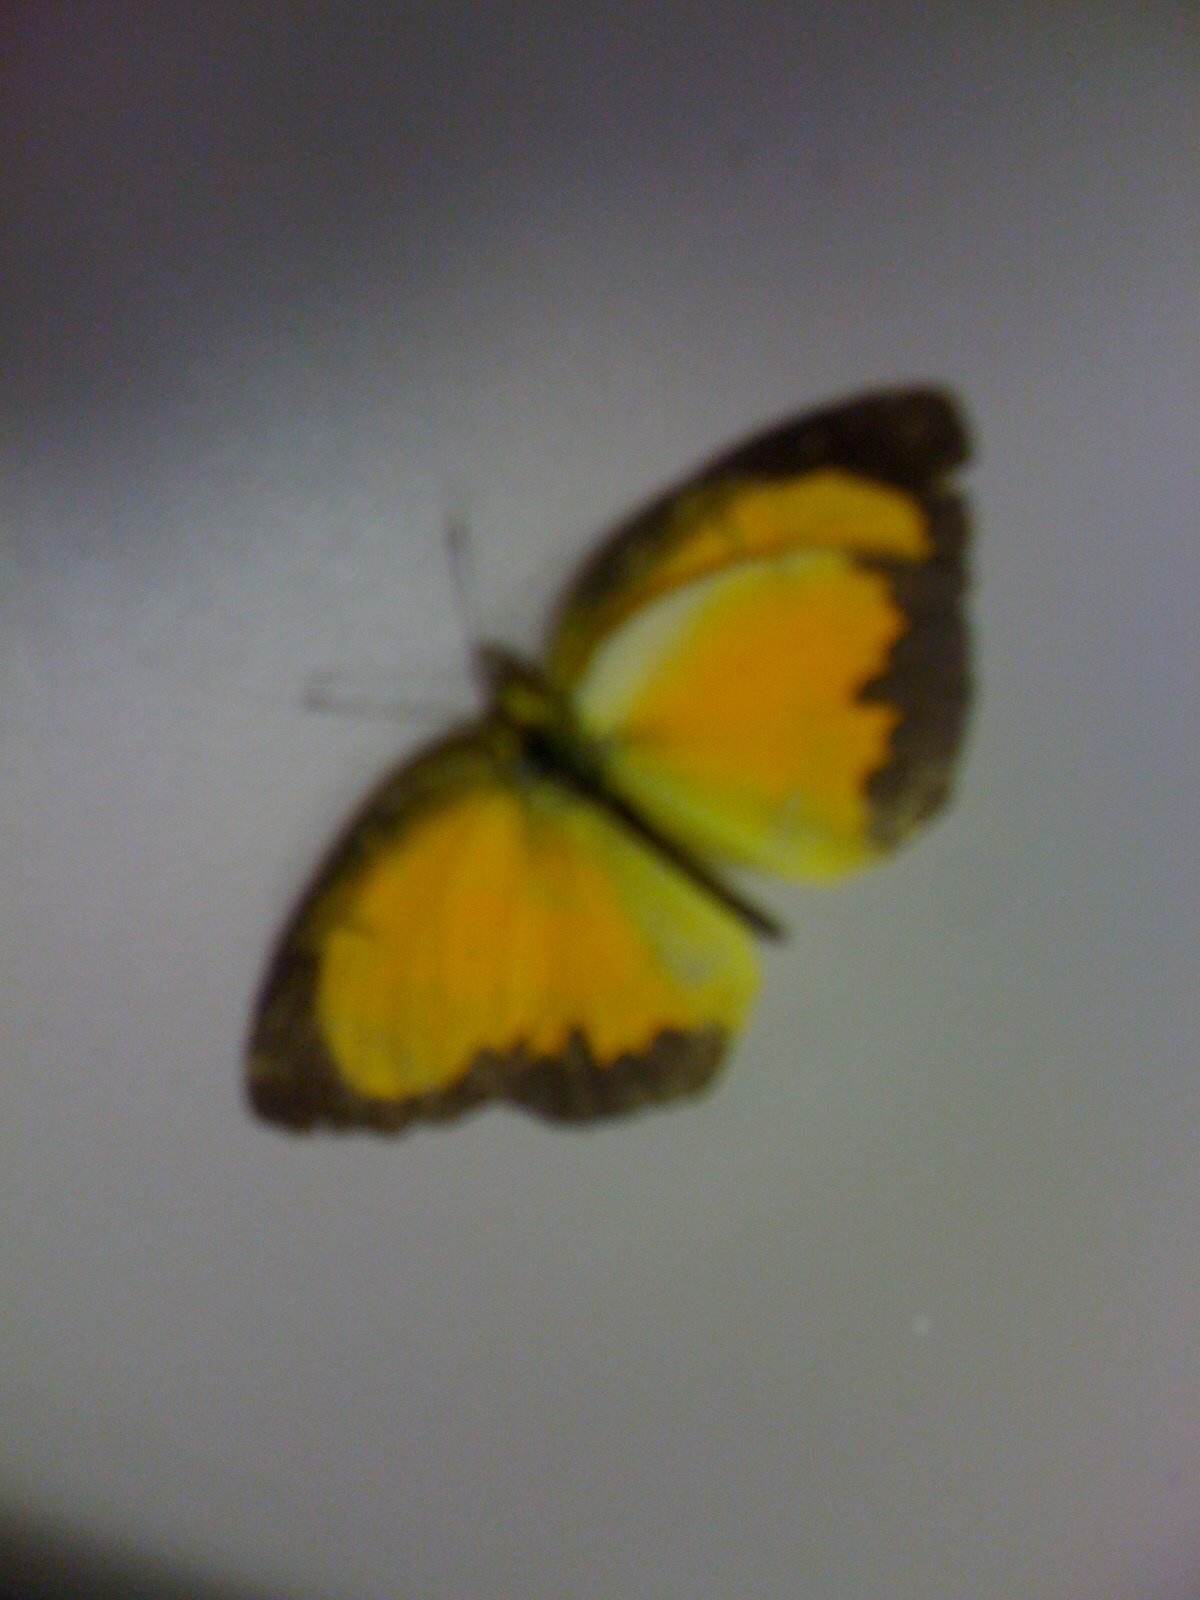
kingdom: Animalia
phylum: Arthropoda
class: Insecta
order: Lepidoptera
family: Pieridae
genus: Abaeis
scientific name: Abaeis nicippe
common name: Sleepy orange
